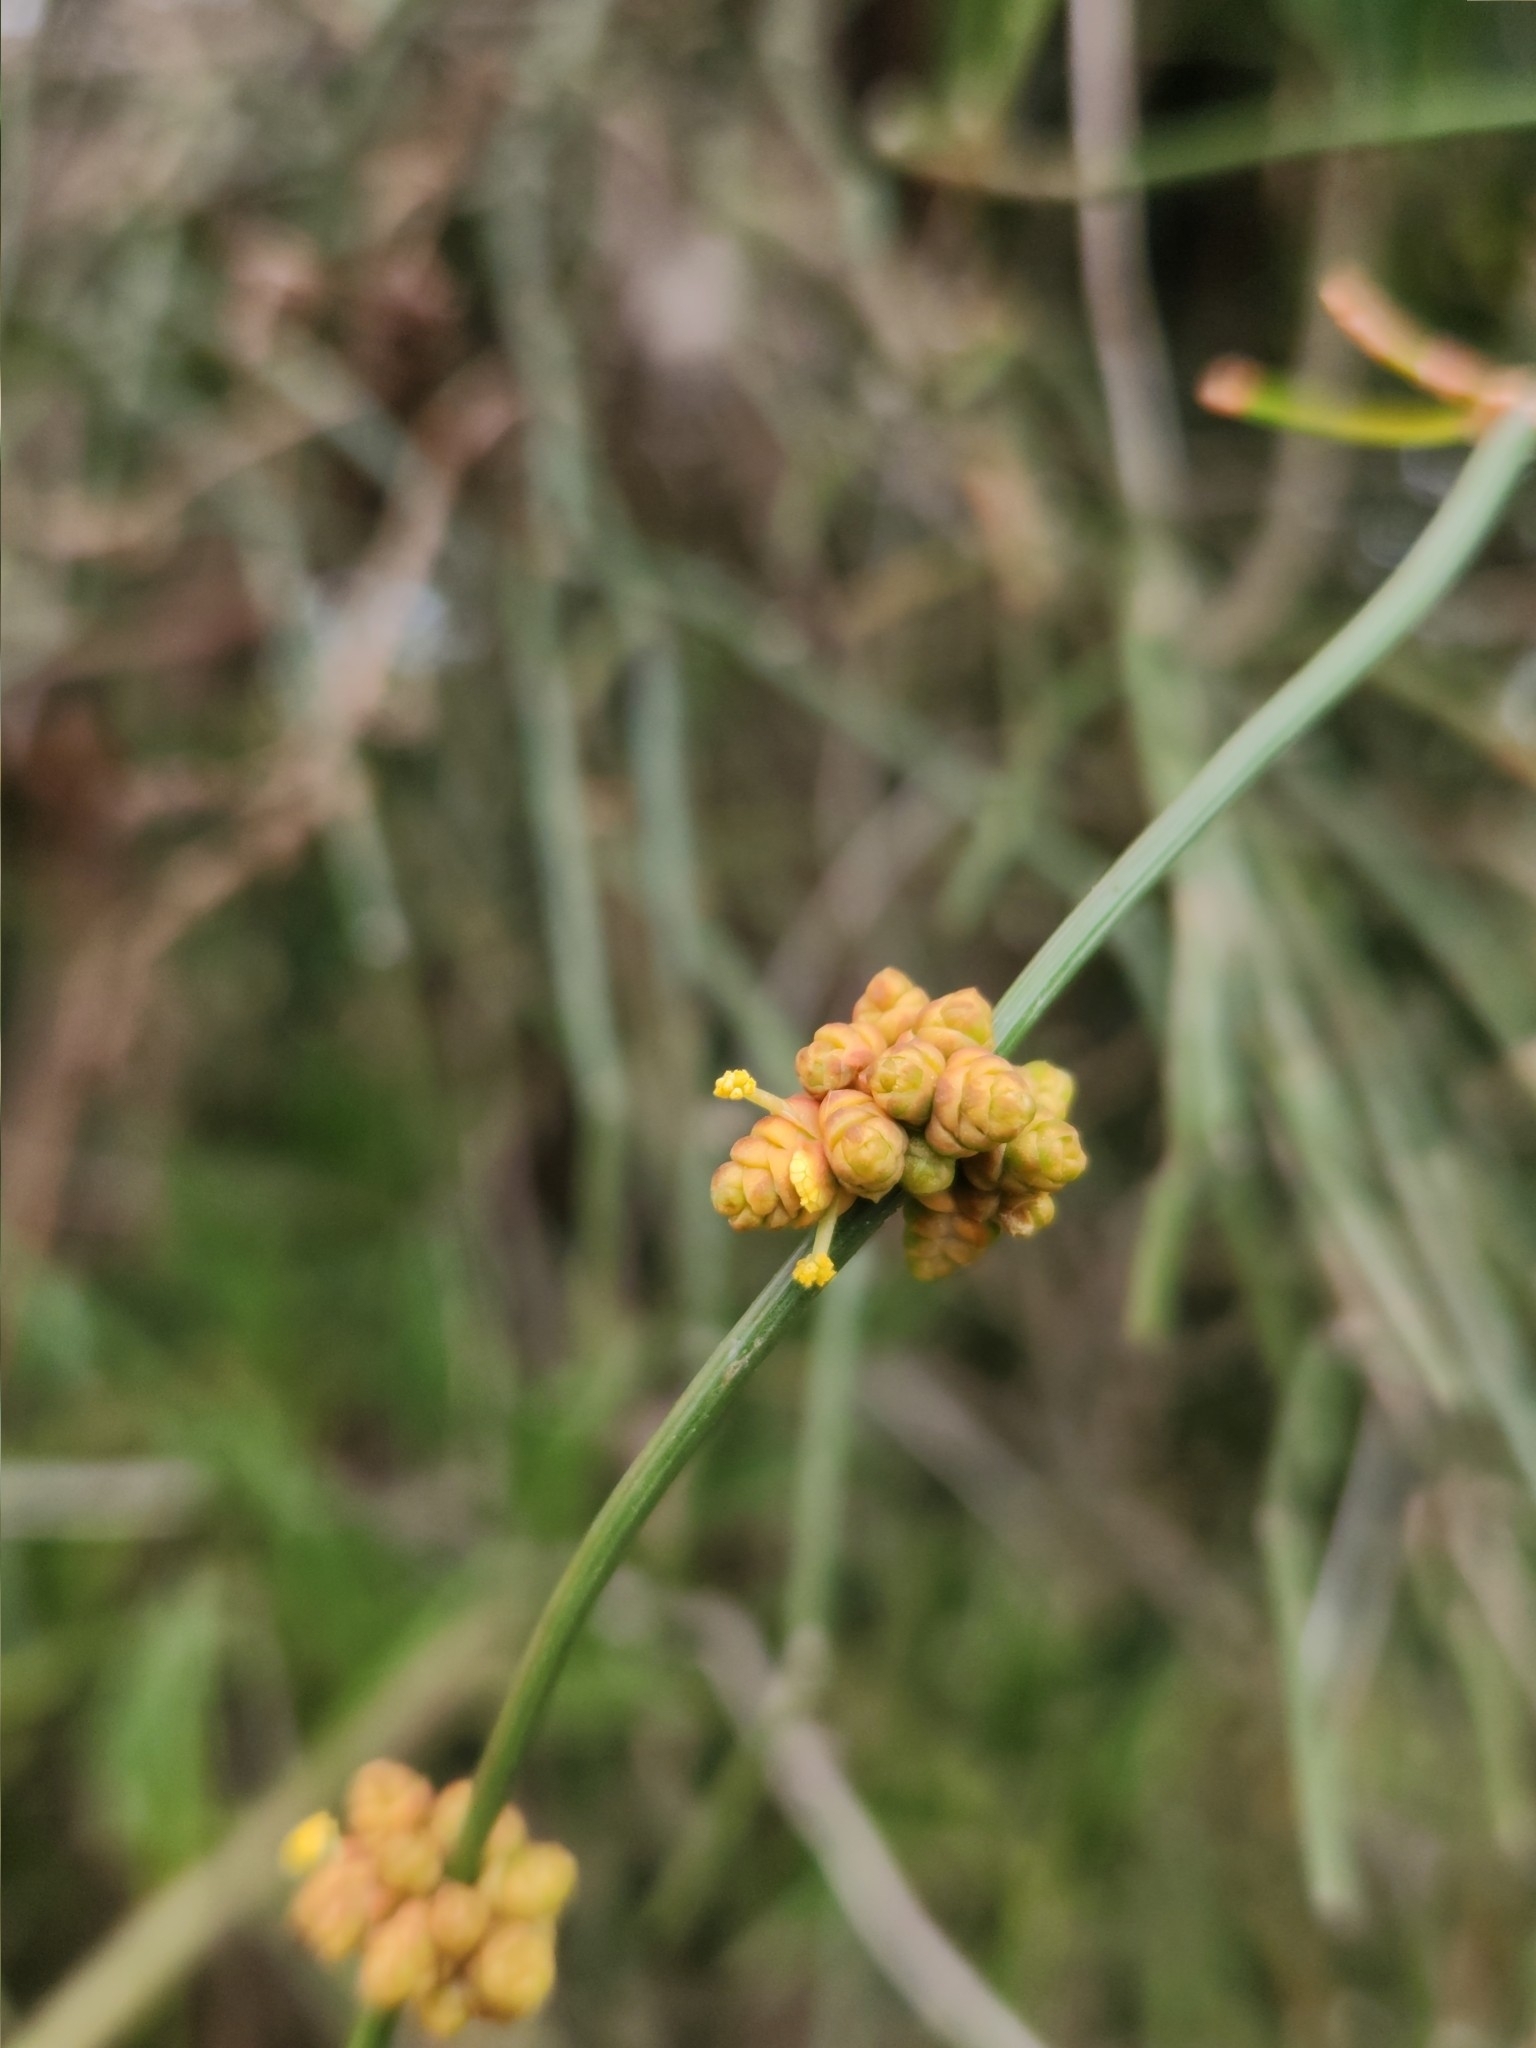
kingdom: Plantae
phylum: Tracheophyta
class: Gnetopsida
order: Ephedrales
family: Ephedraceae
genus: Ephedra
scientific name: Ephedra tweedieana
